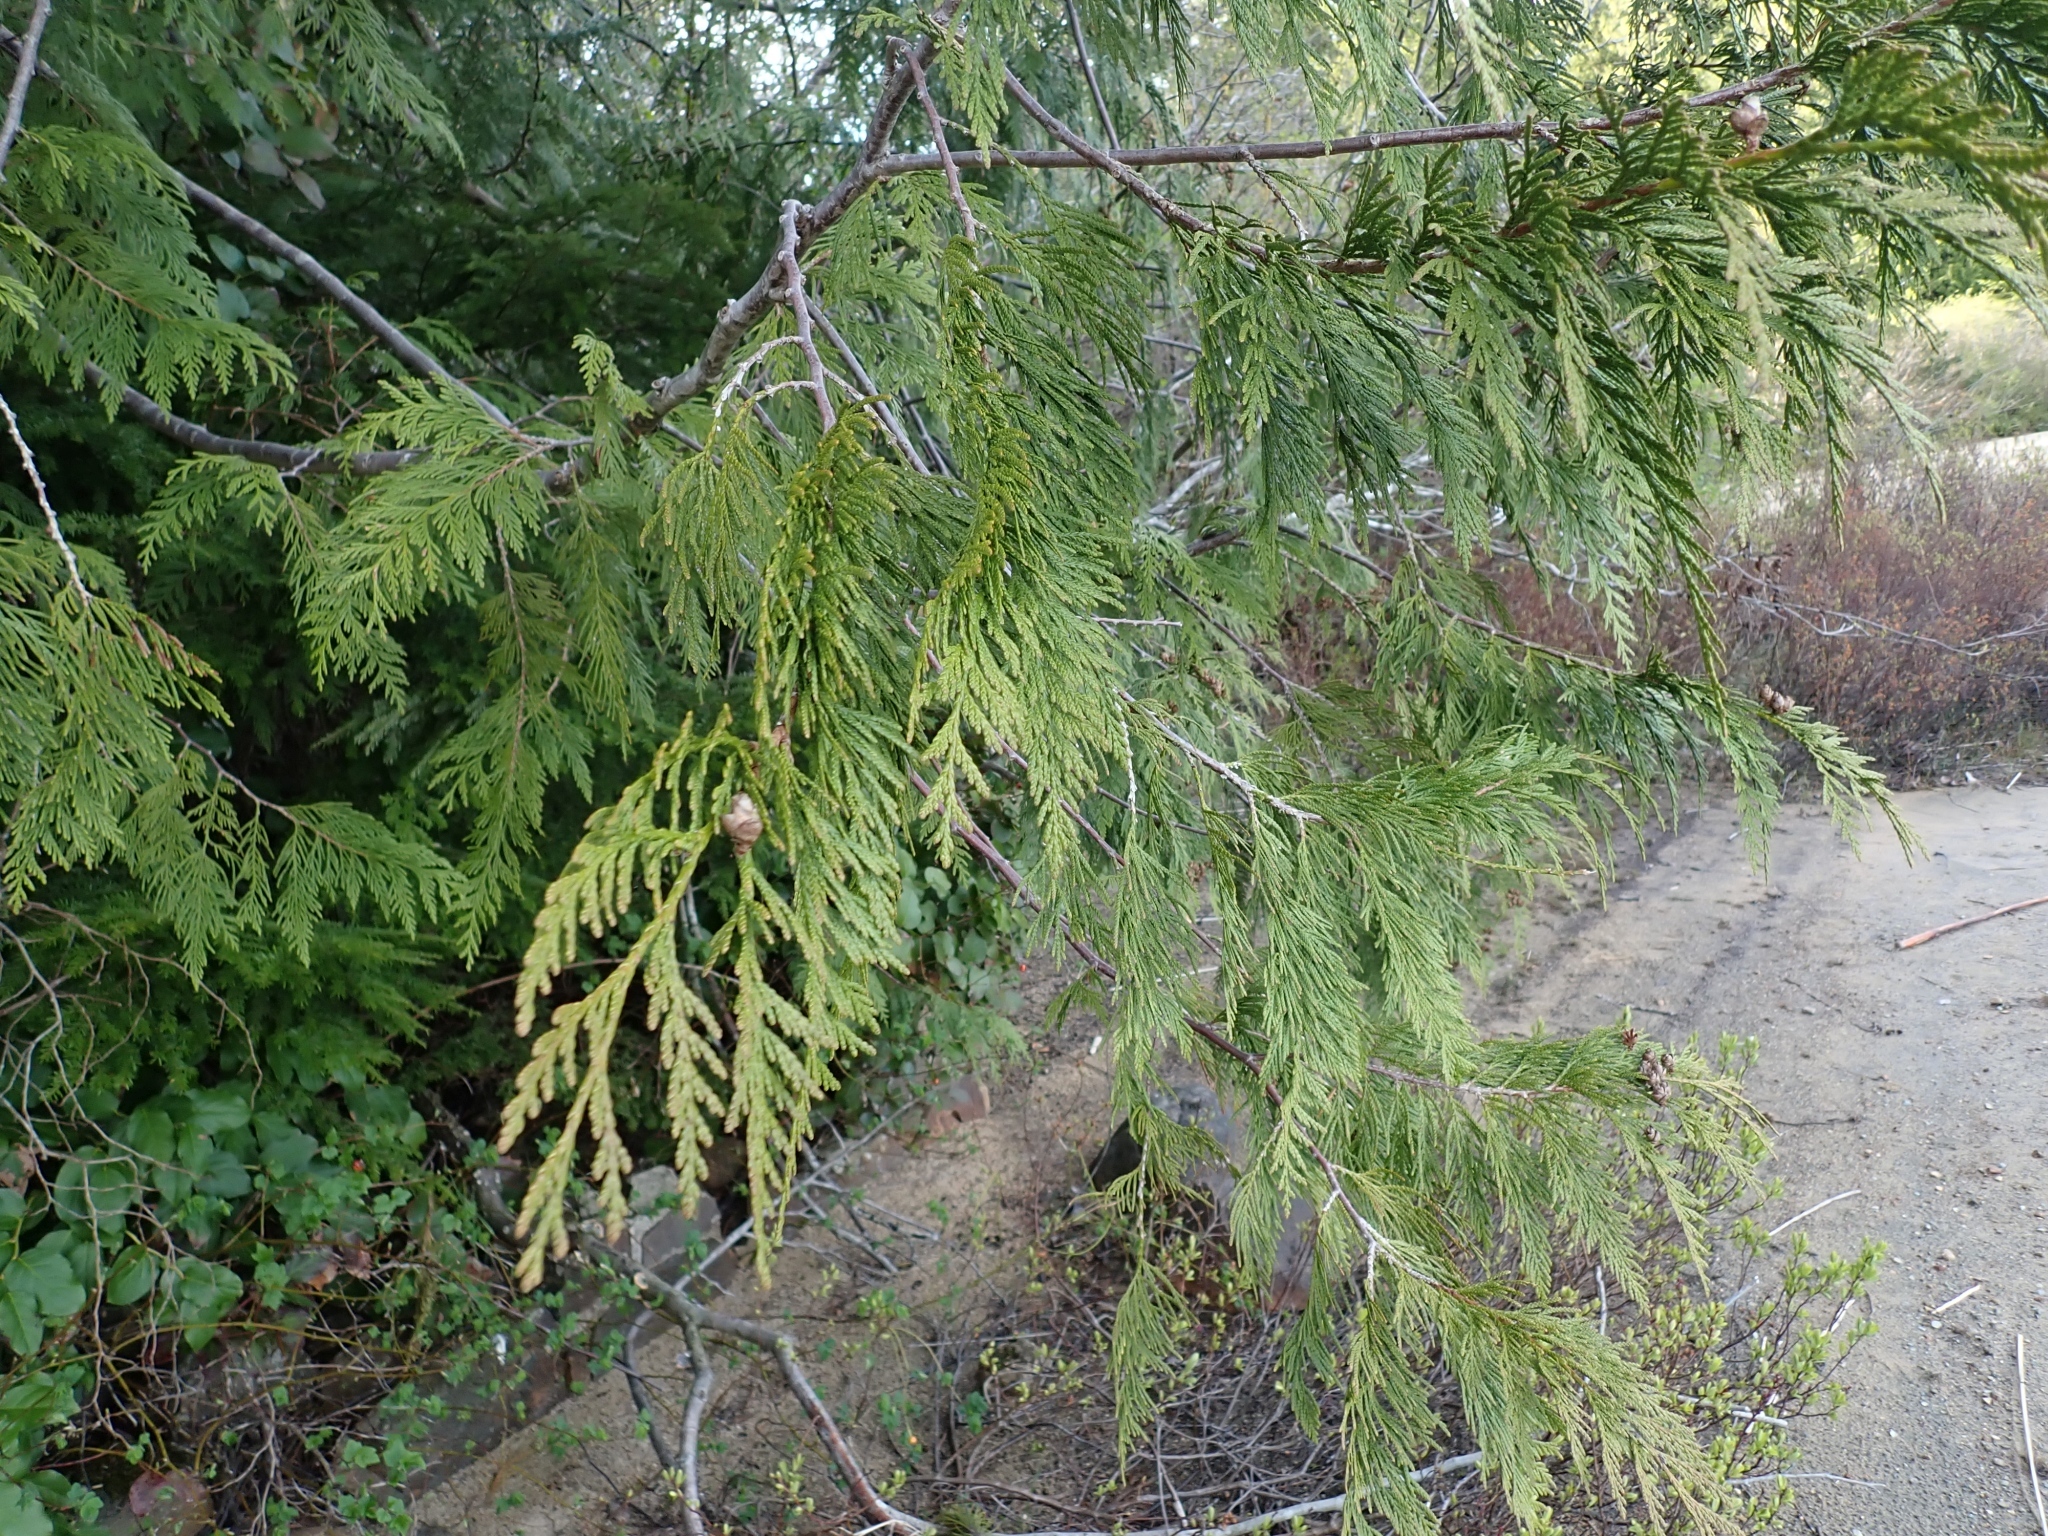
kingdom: Plantae
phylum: Tracheophyta
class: Pinopsida
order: Pinales
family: Cupressaceae
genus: Thuja
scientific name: Thuja plicata
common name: Western red-cedar
